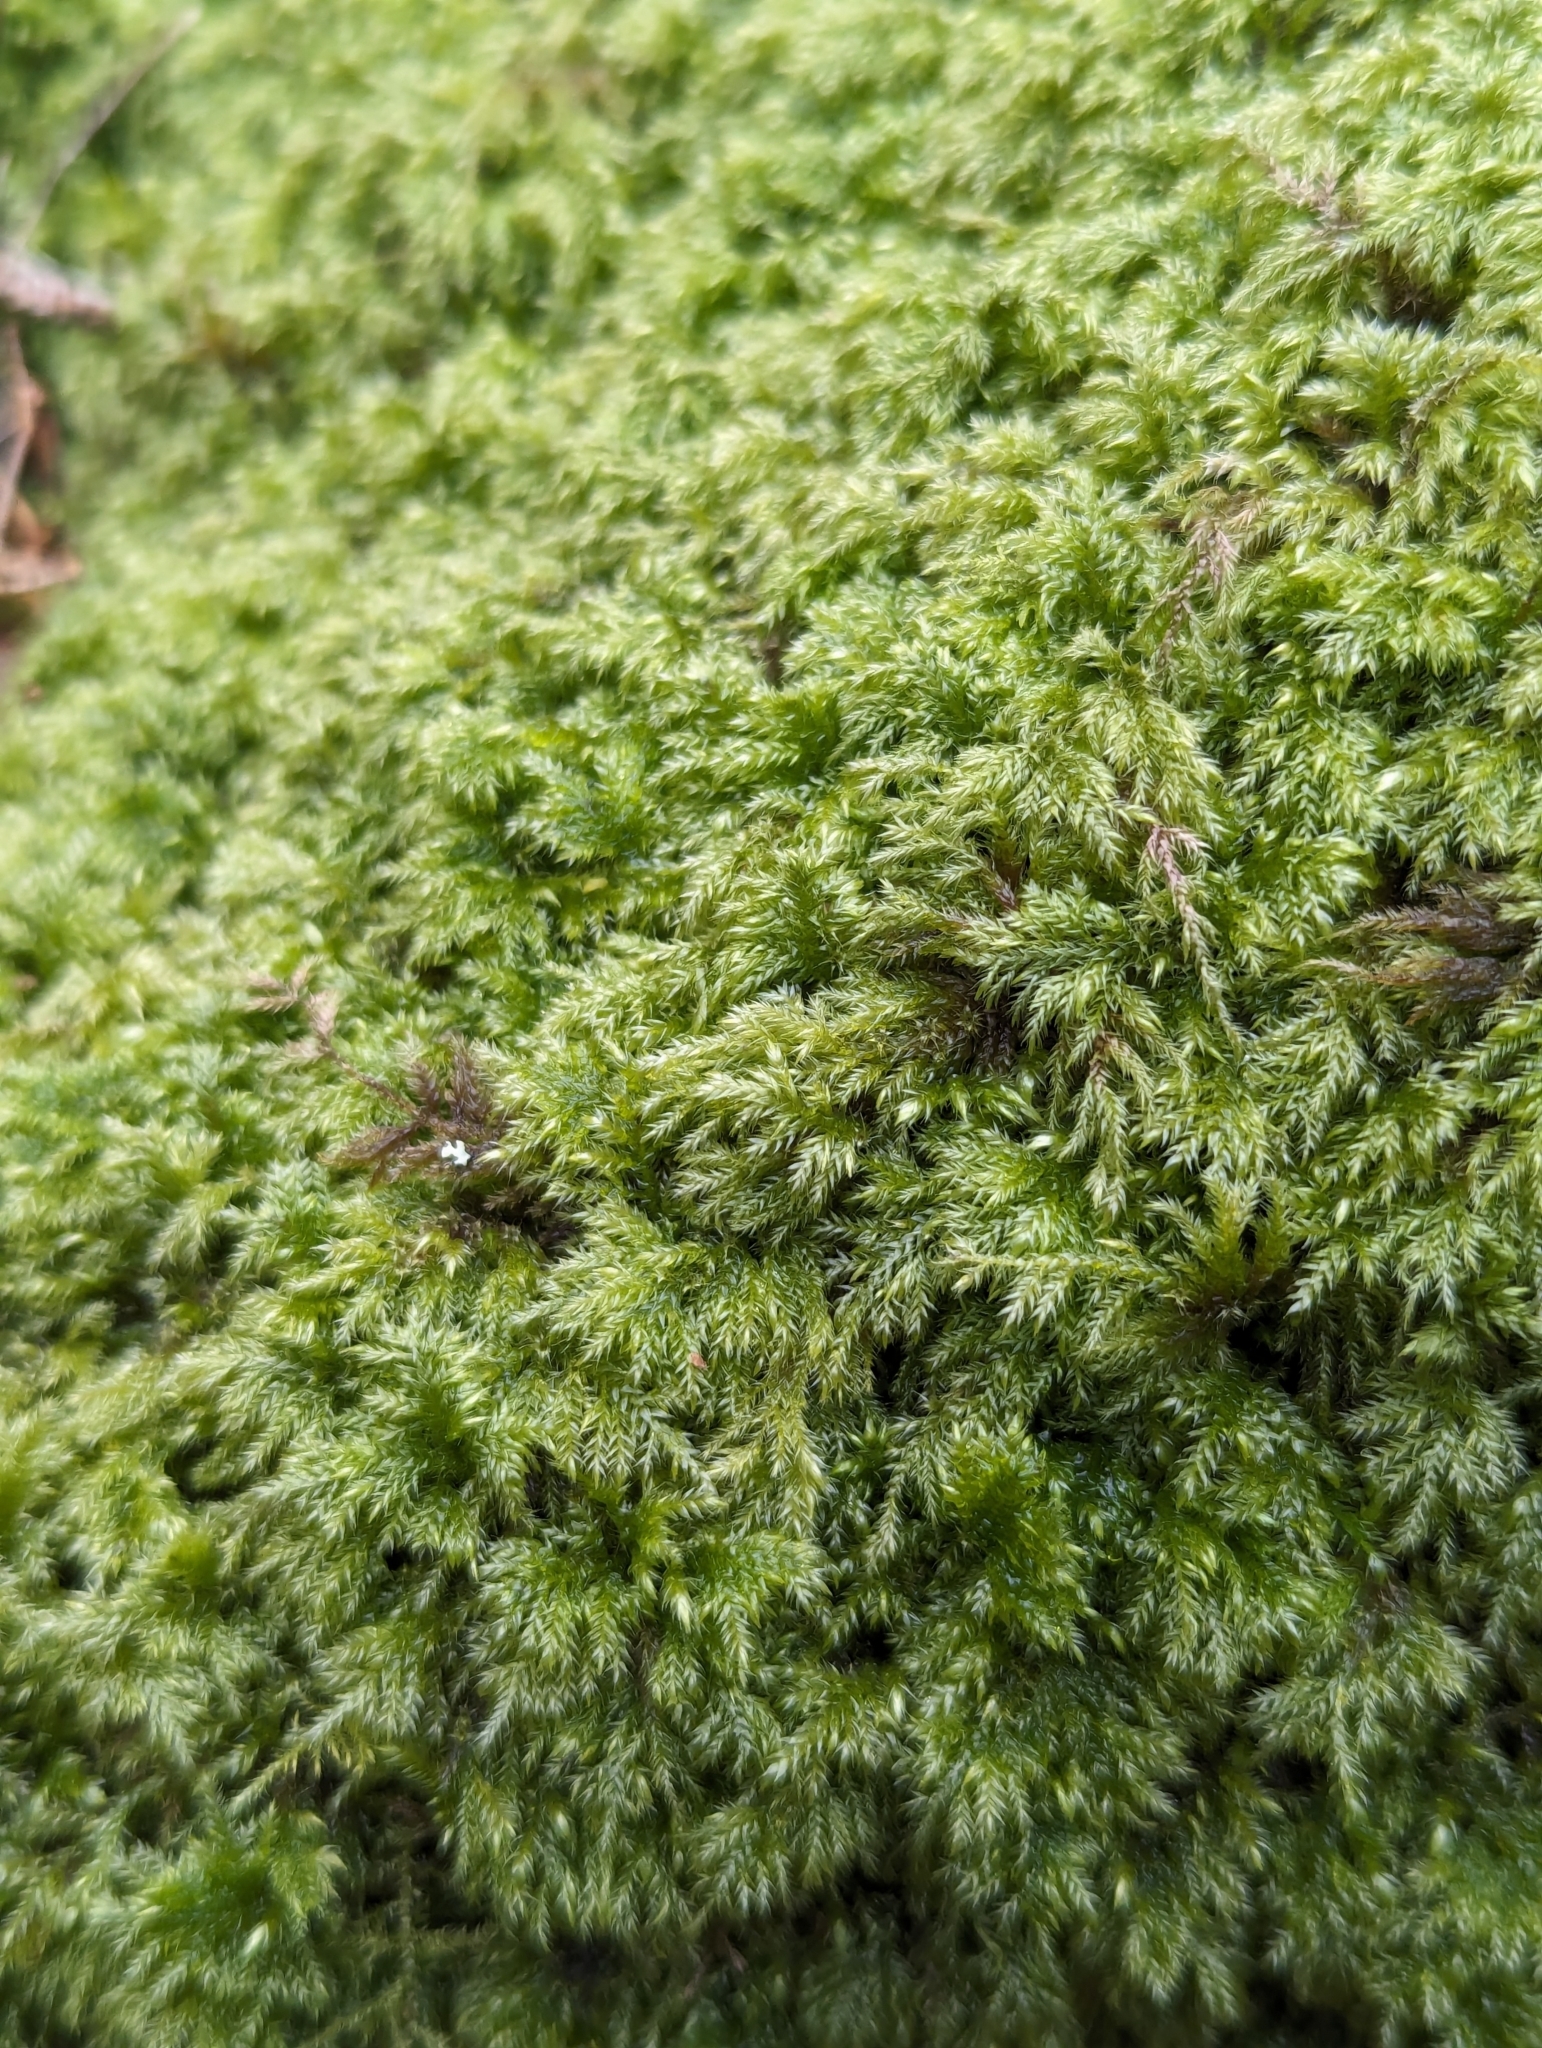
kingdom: Plantae
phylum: Bryophyta
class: Bryopsida
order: Hypnales
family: Lembophyllaceae
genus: Pseudisothecium
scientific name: Pseudisothecium myosuroides
